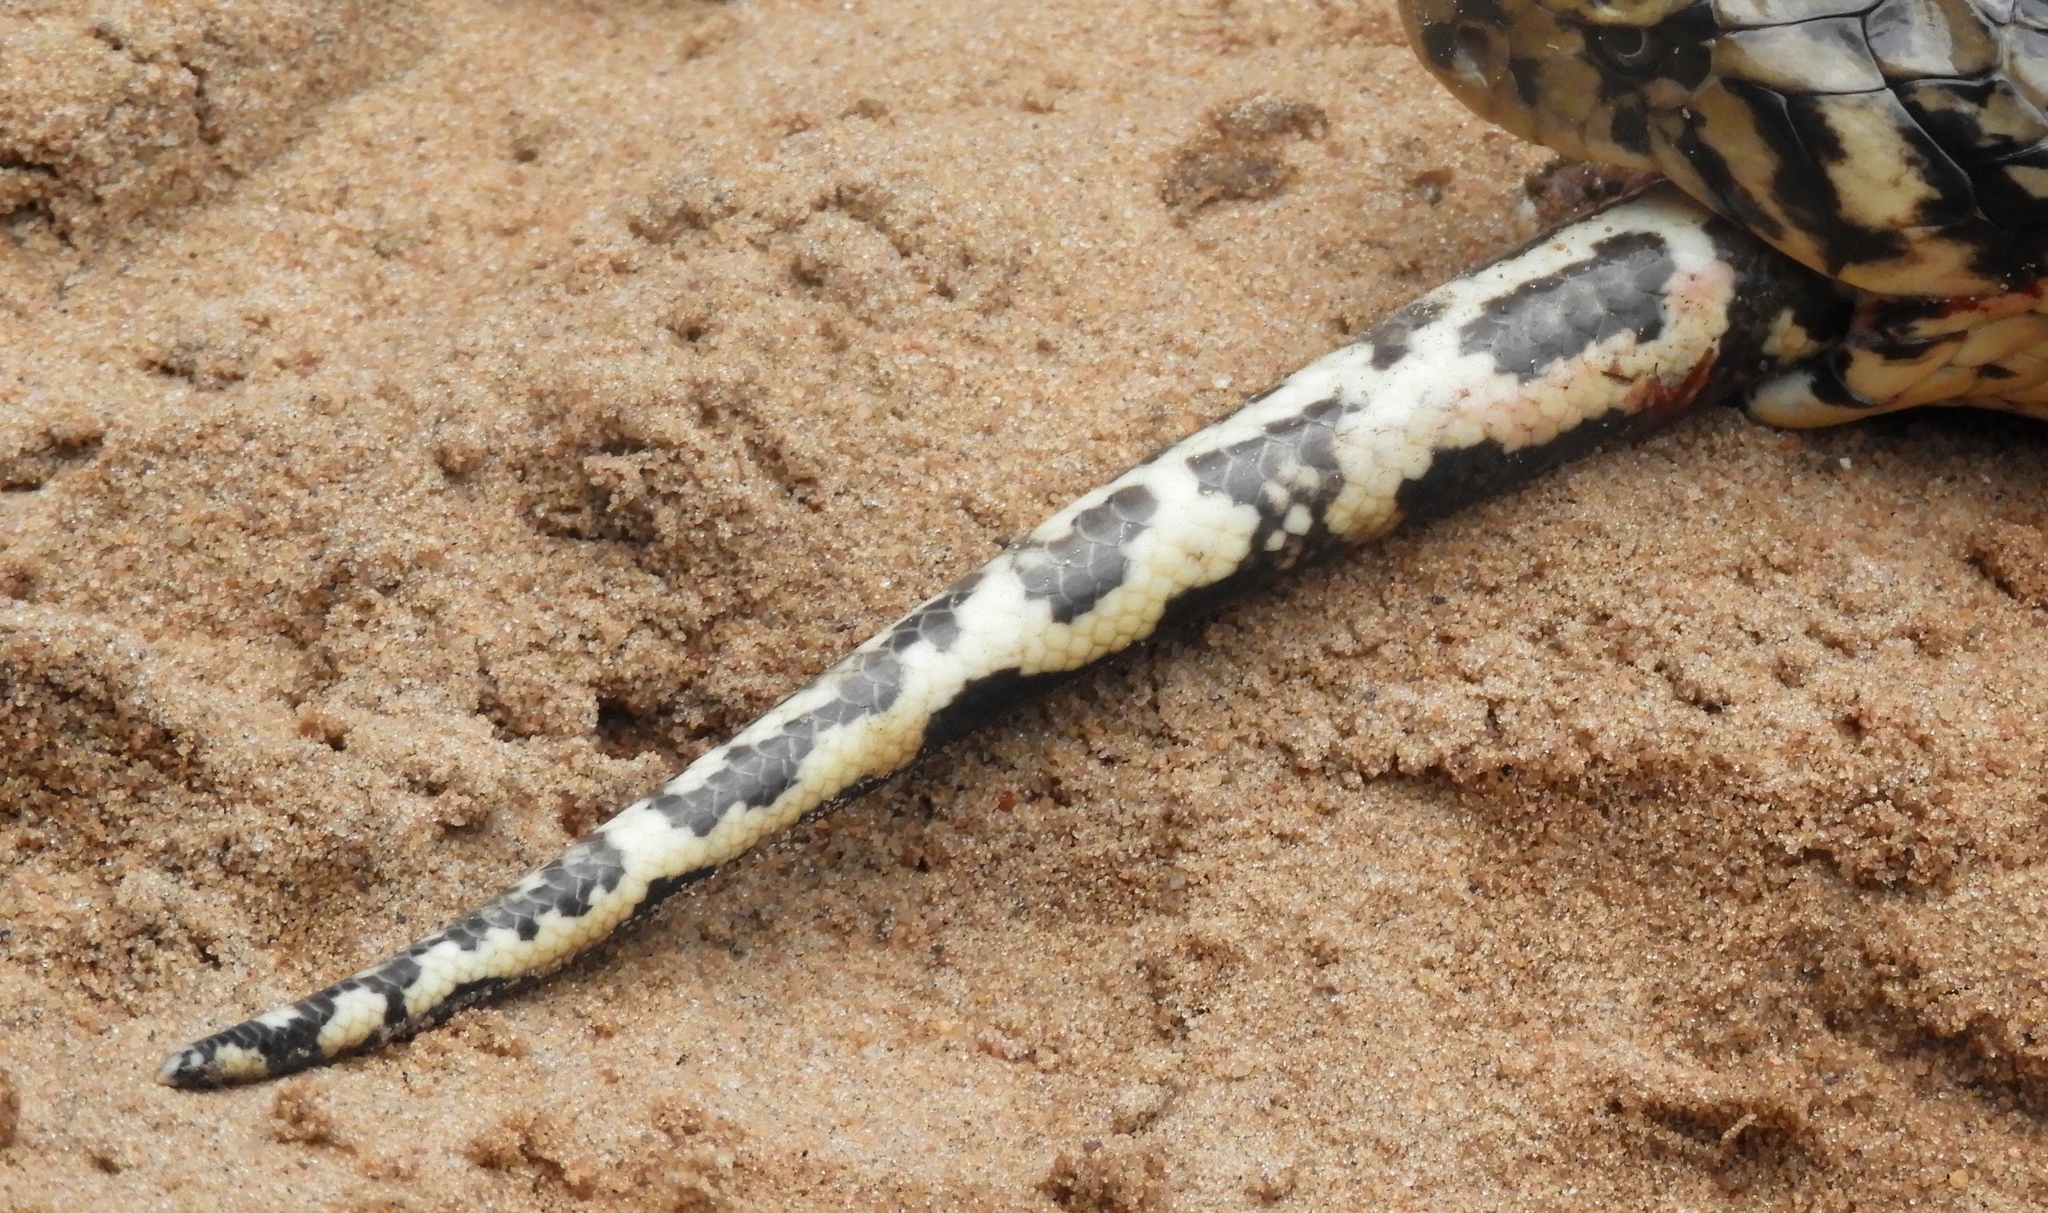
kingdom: Animalia
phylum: Chordata
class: Squamata
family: Pythonidae
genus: Python
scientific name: Python natalensis
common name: Southern african rock python
